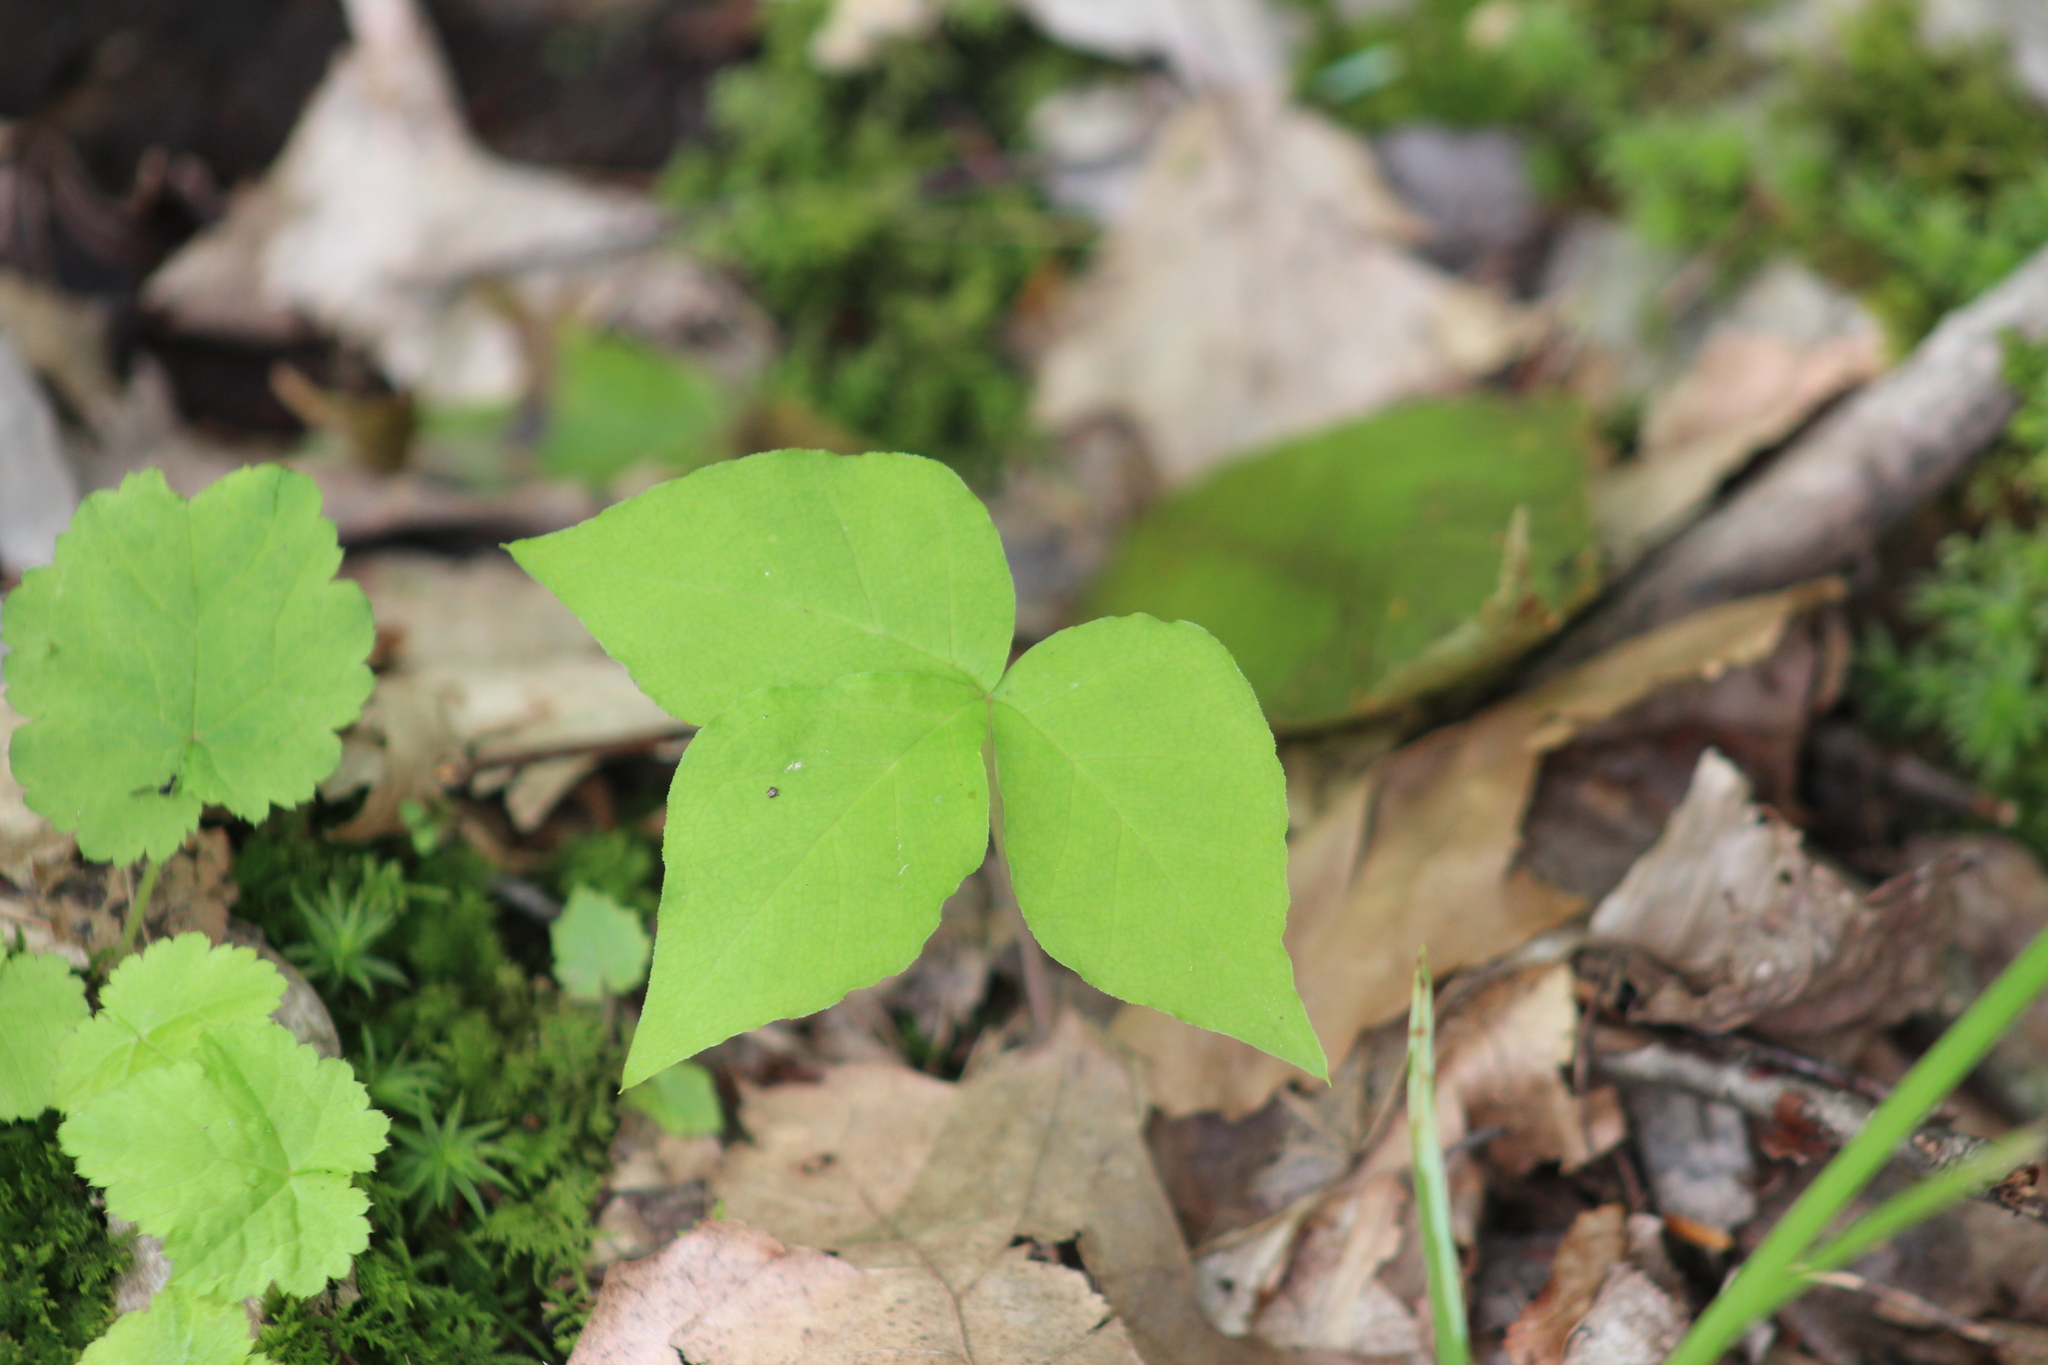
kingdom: Plantae
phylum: Tracheophyta
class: Liliopsida
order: Alismatales
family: Araceae
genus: Arisaema
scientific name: Arisaema triphyllum
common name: Jack-in-the-pulpit
